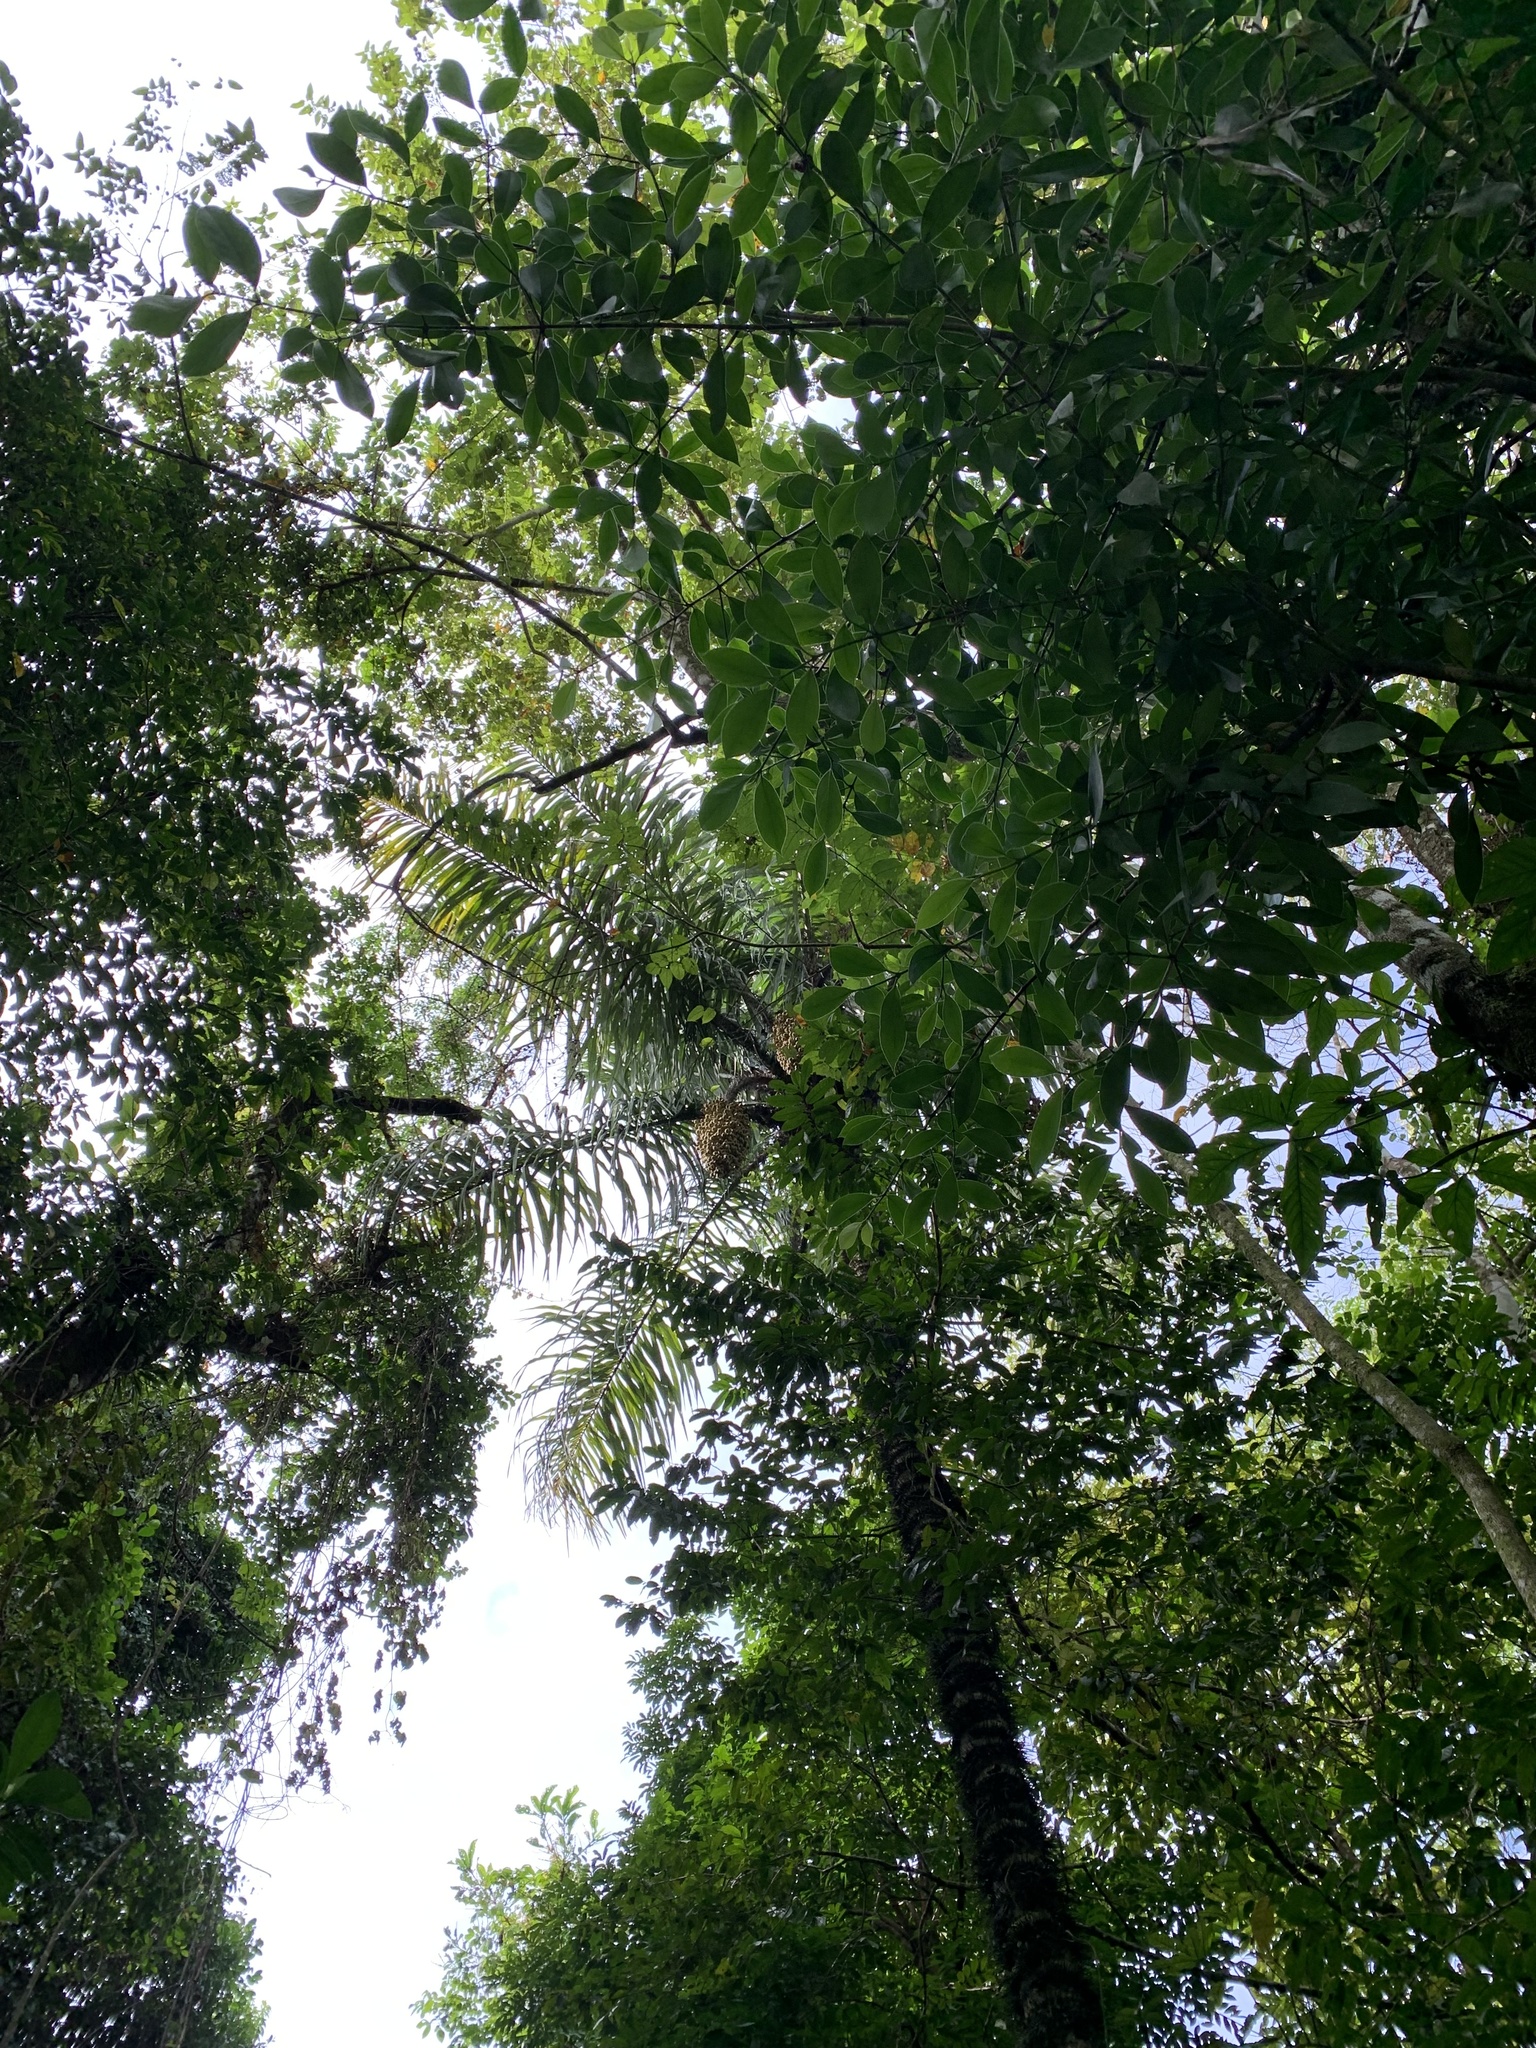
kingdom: Plantae
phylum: Tracheophyta
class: Liliopsida
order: Arecales
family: Arecaceae
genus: Astrocaryum
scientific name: Astrocaryum standleyanum
